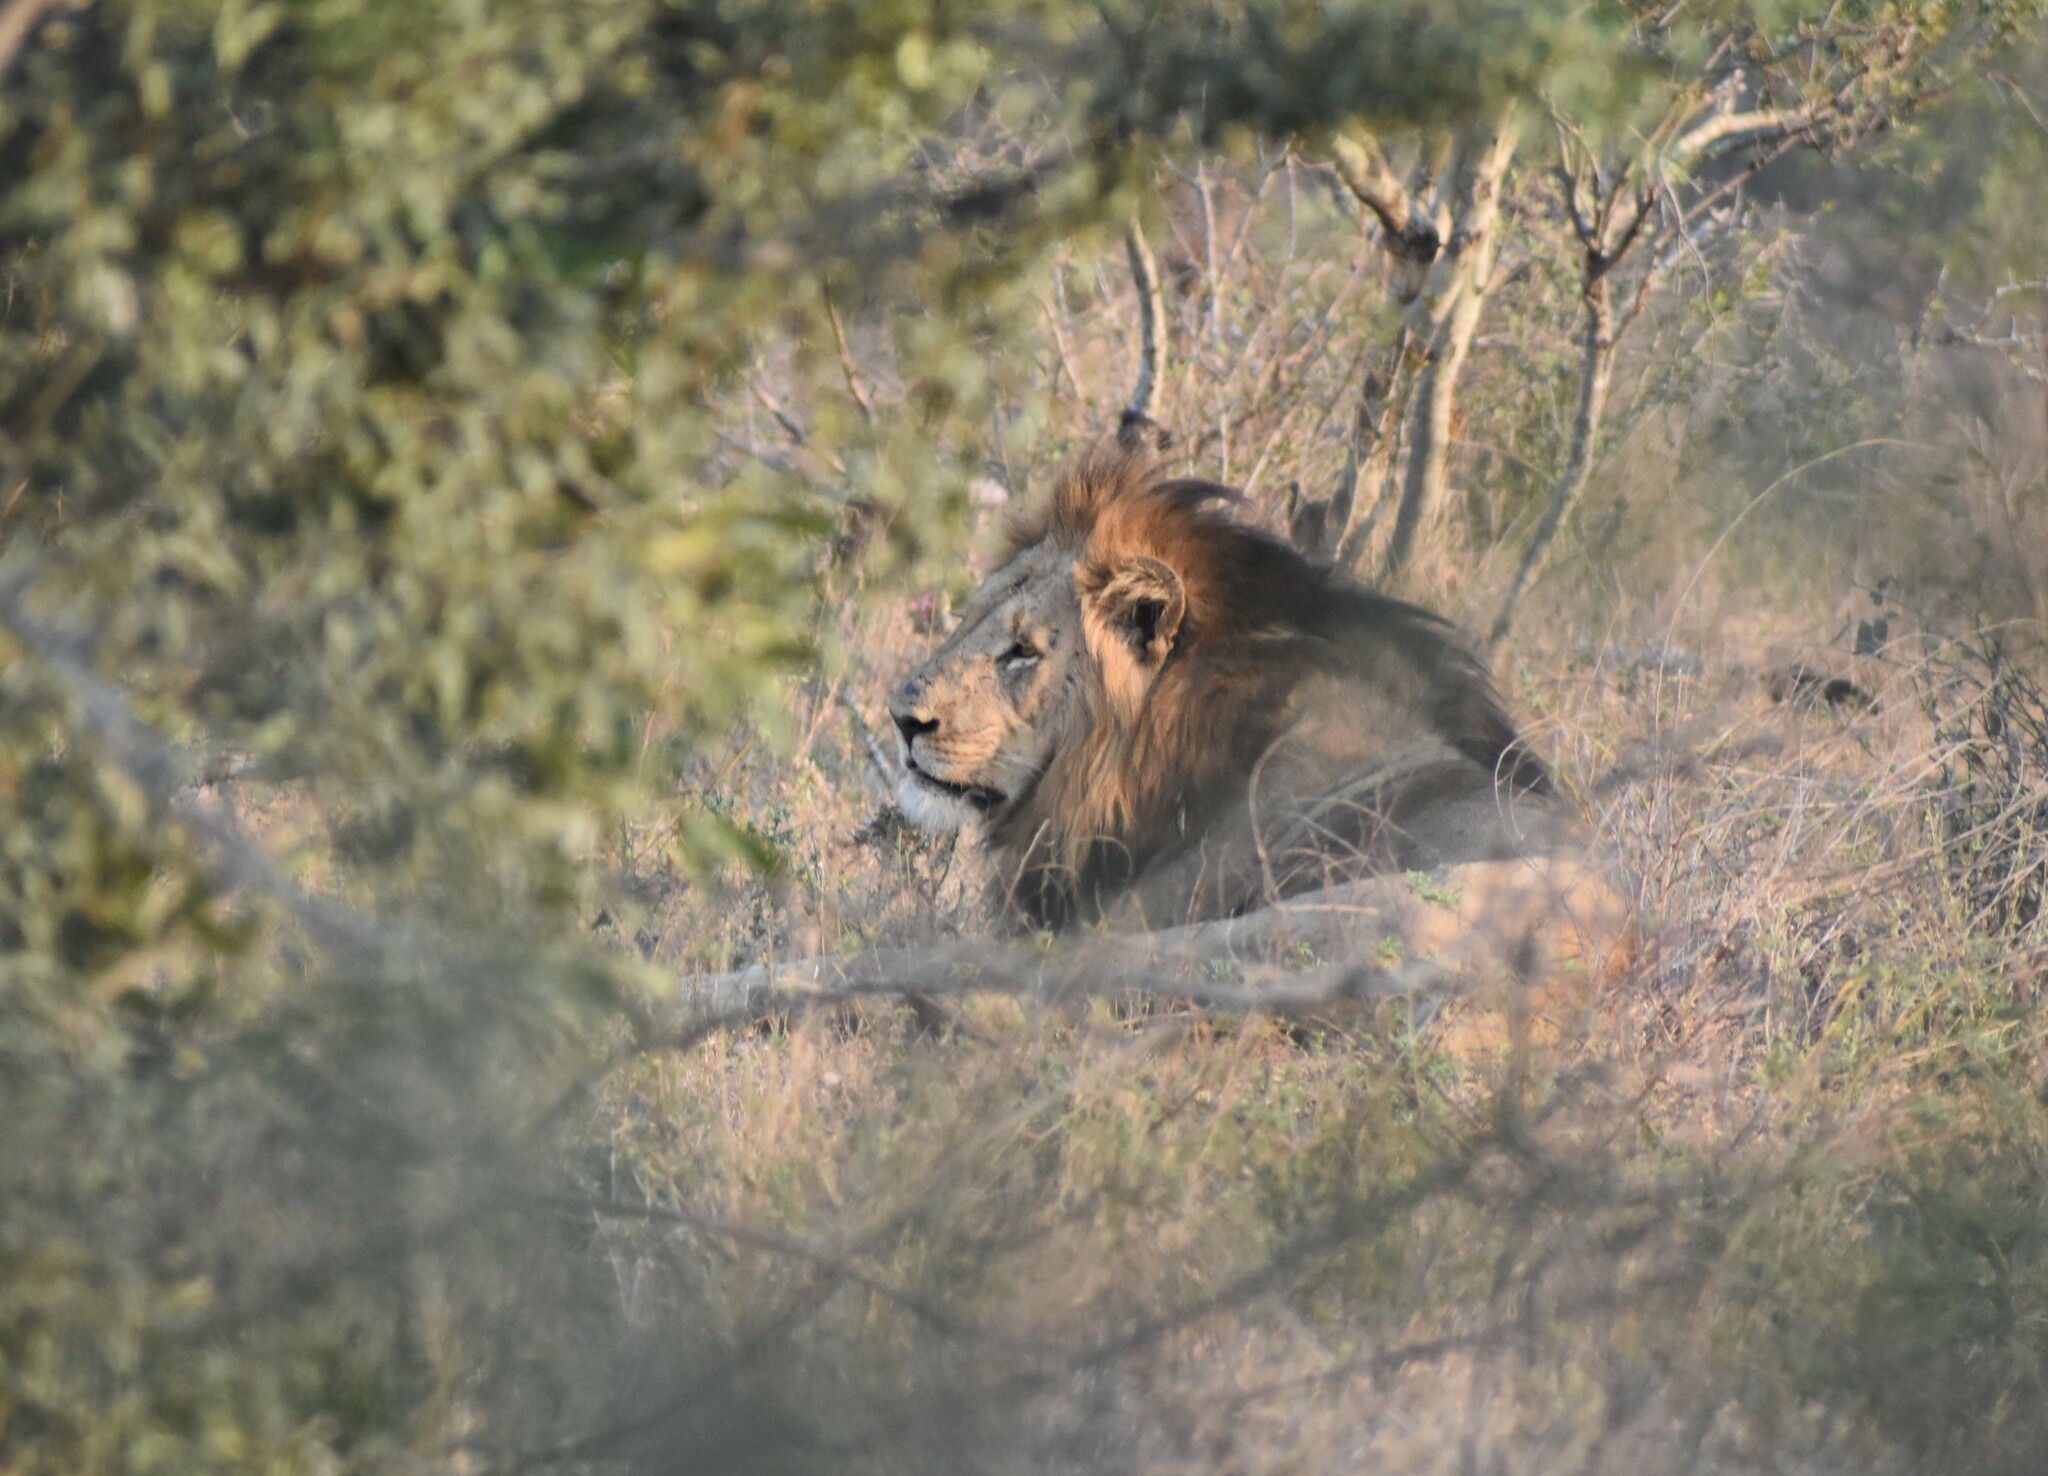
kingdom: Animalia
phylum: Chordata
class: Mammalia
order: Carnivora
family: Felidae
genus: Panthera
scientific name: Panthera leo
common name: Lion
